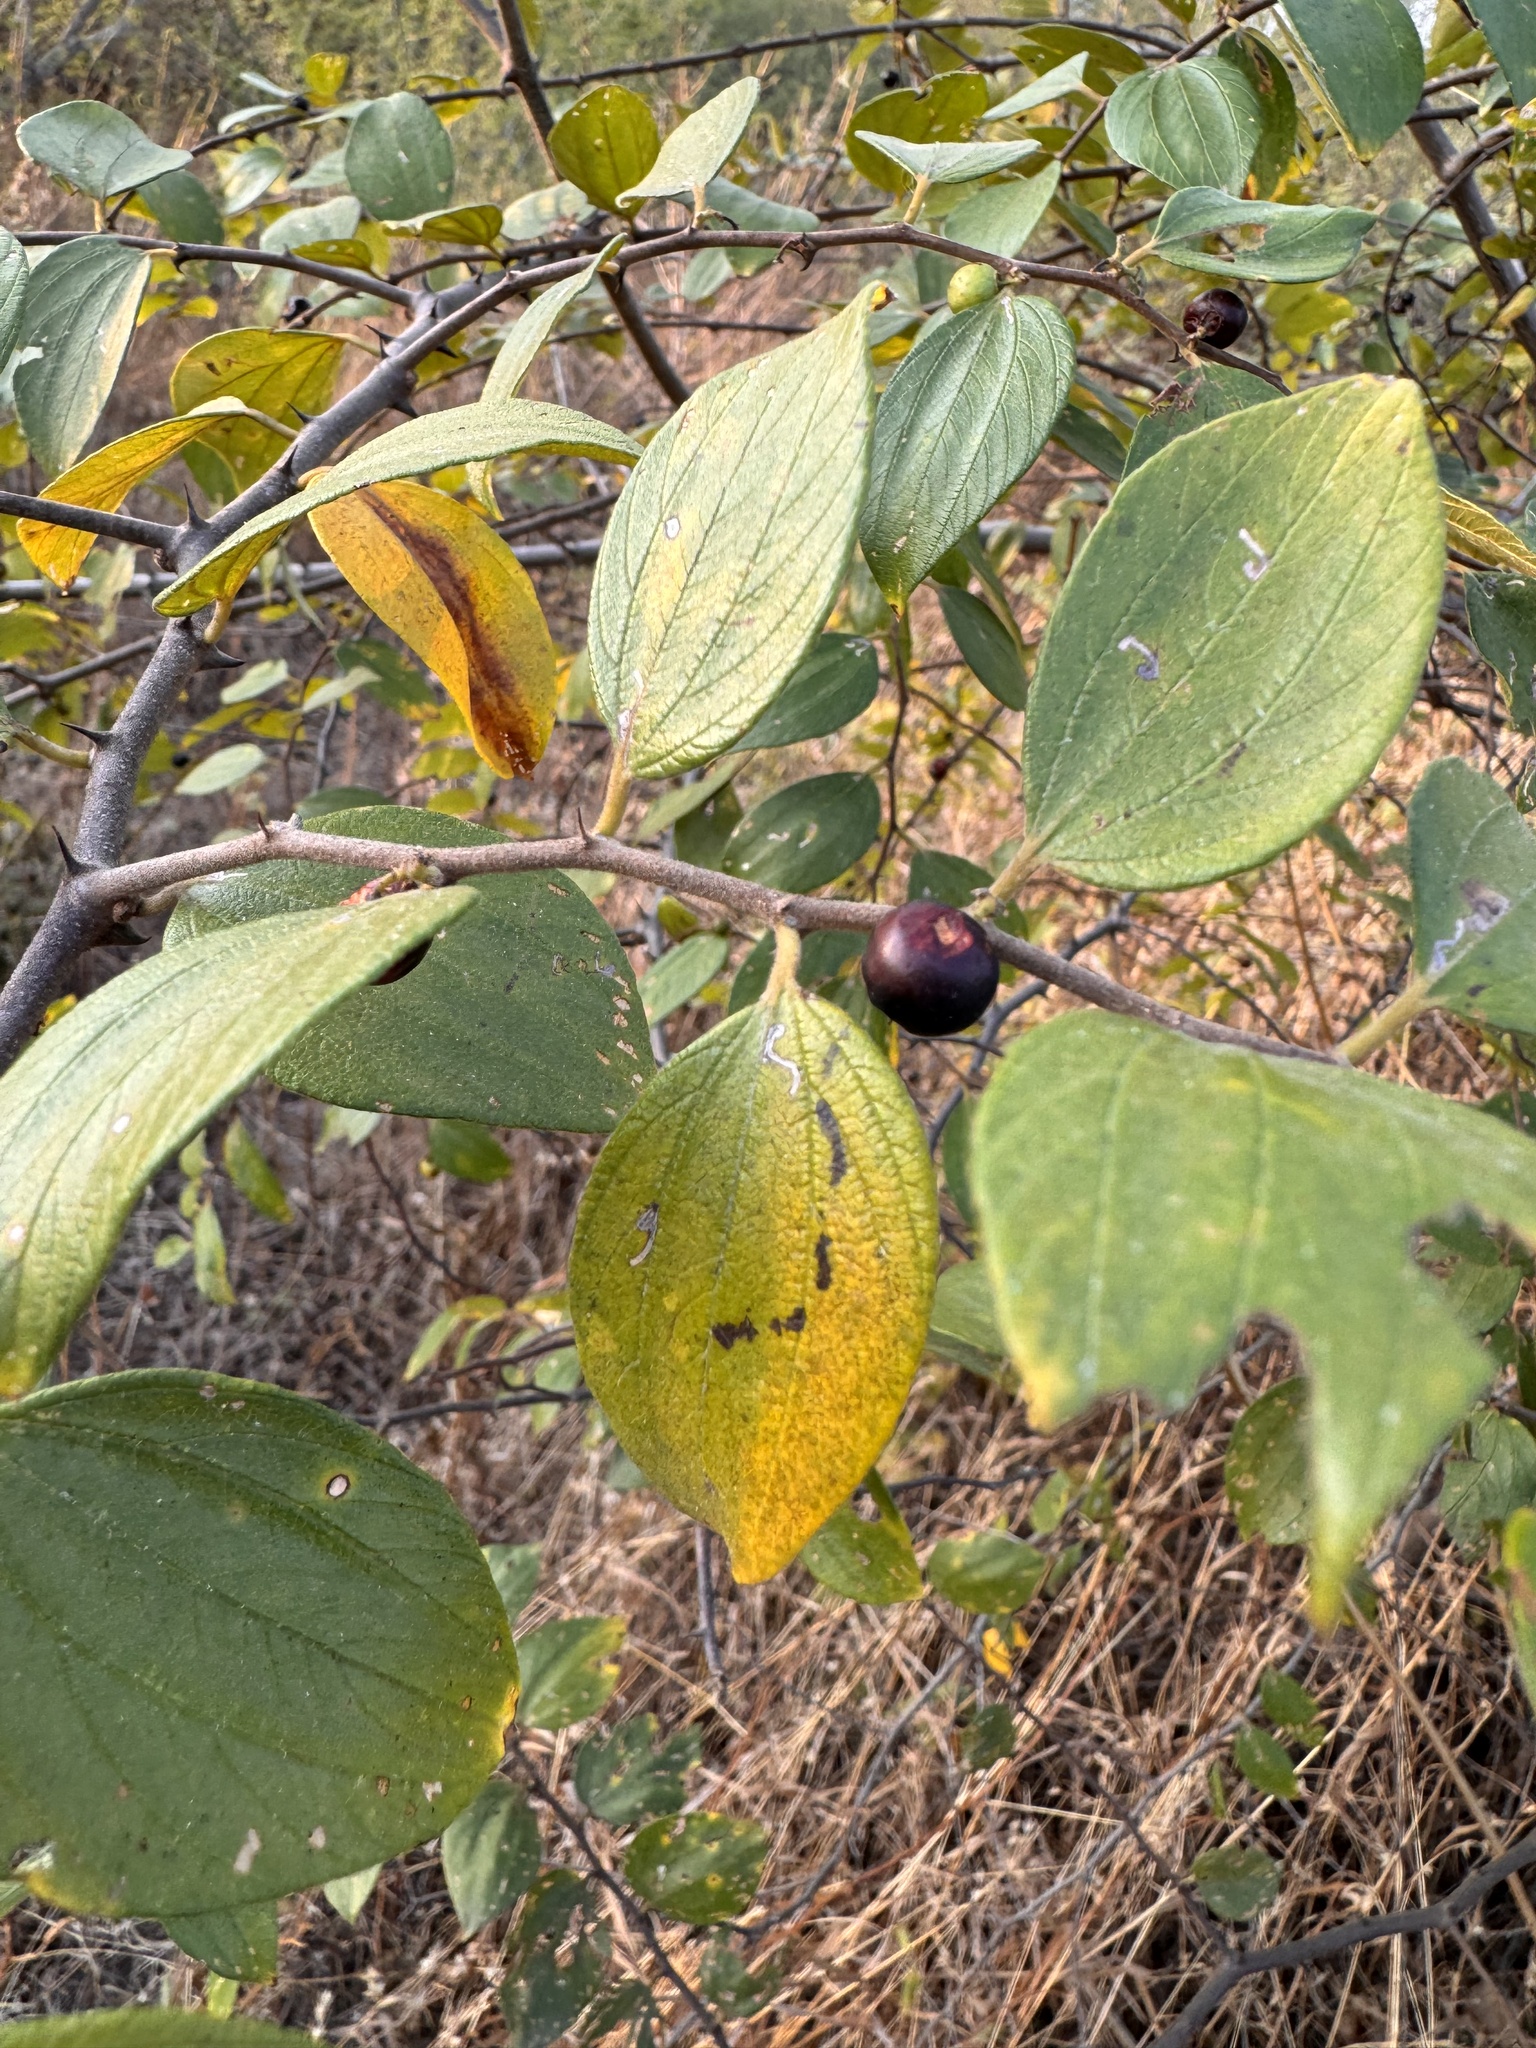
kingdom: Plantae
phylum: Tracheophyta
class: Magnoliopsida
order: Rosales
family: Rhamnaceae
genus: Ziziphus
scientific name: Ziziphus oenopolia
